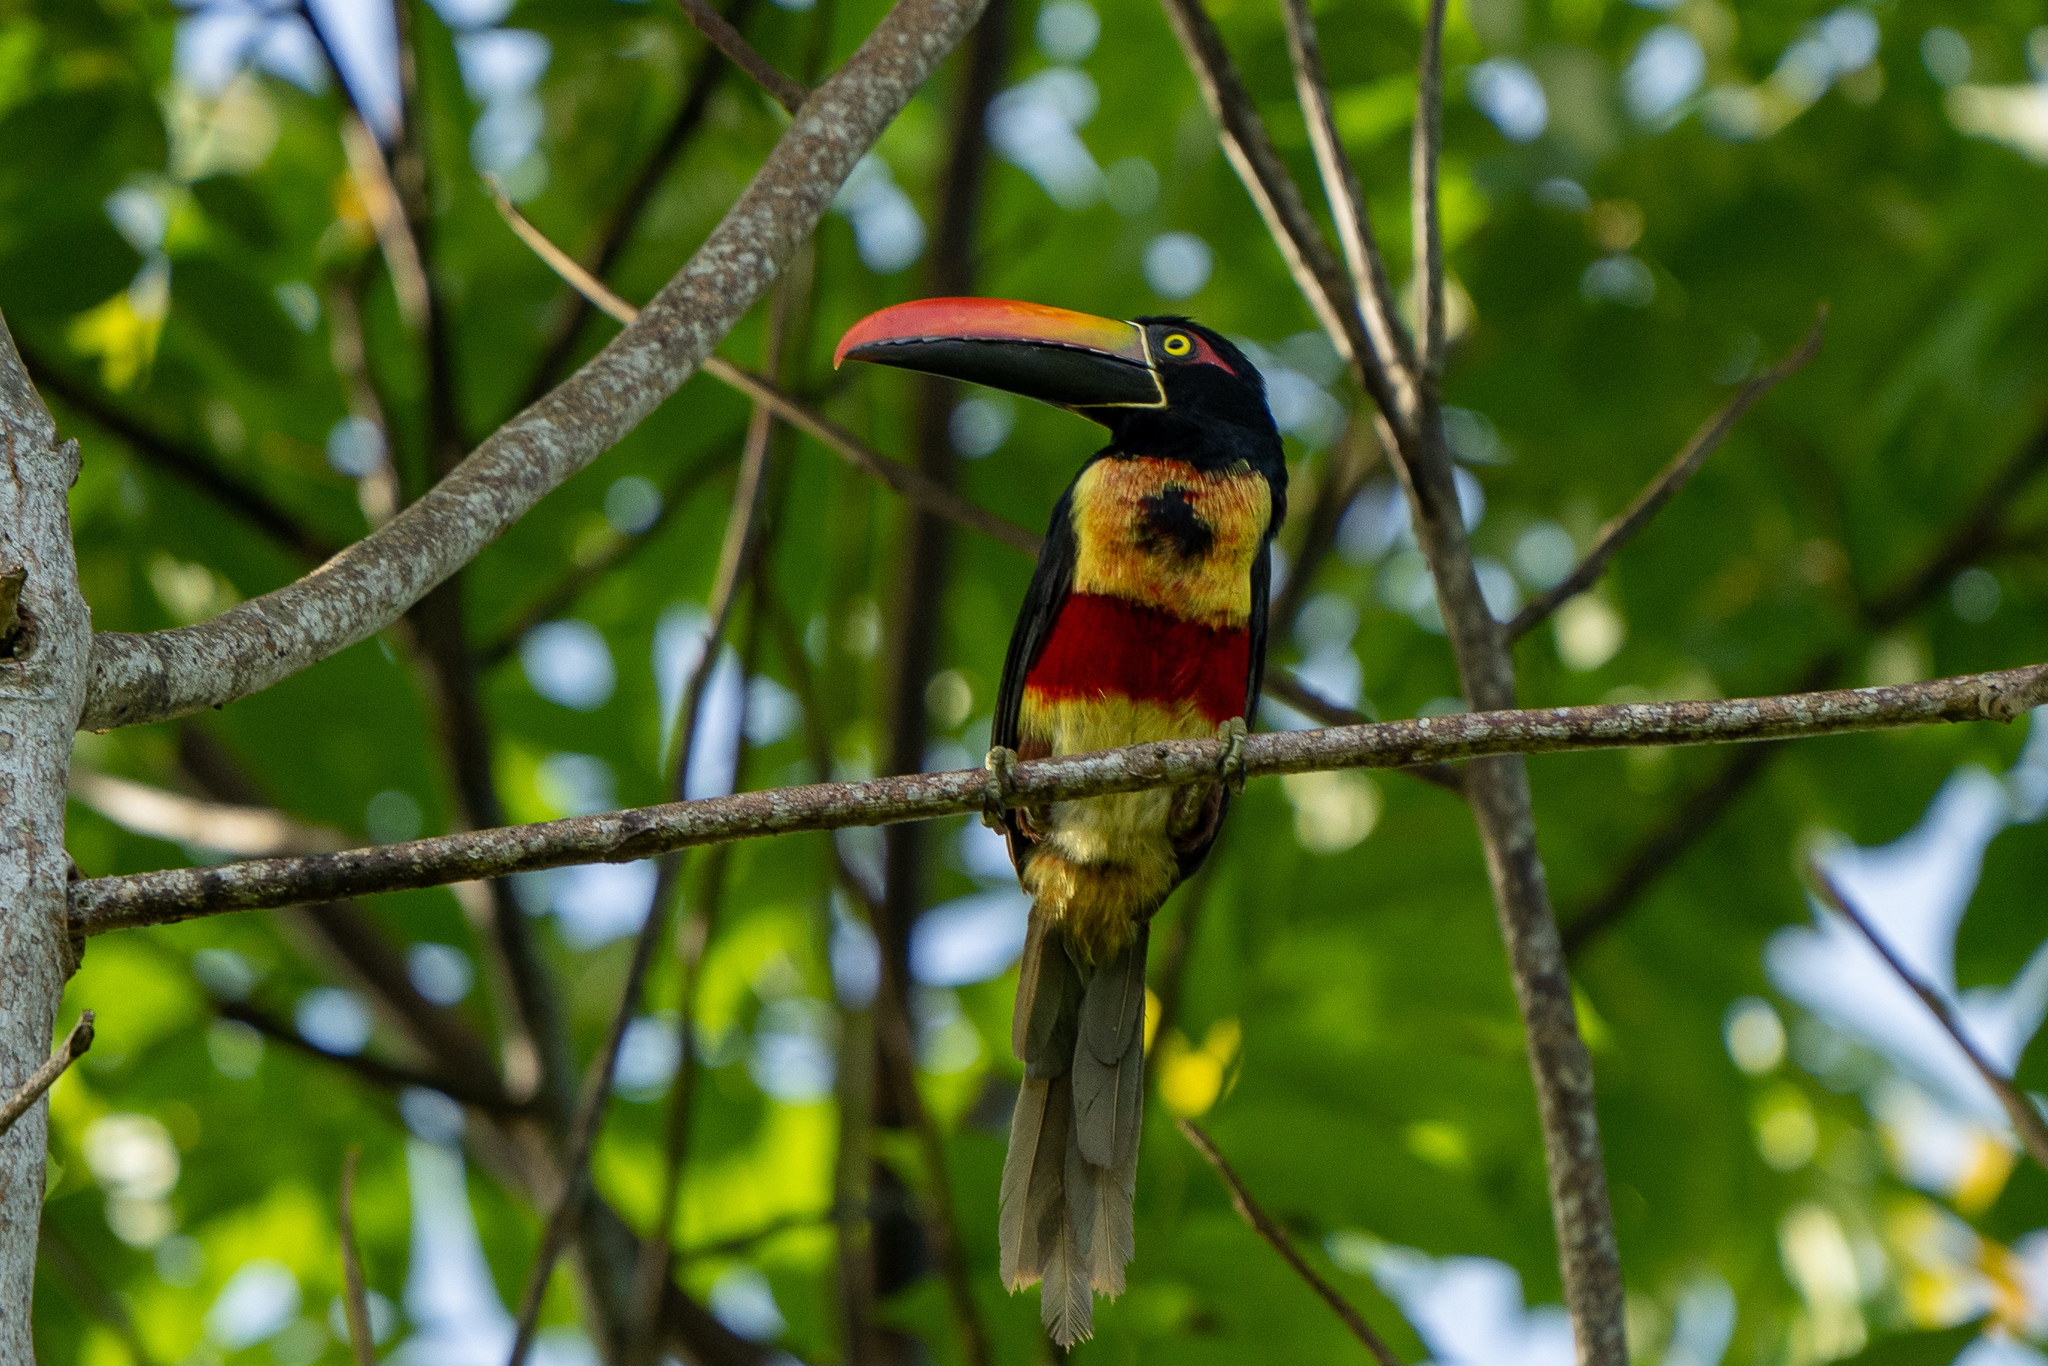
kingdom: Animalia
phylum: Chordata
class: Aves
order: Piciformes
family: Ramphastidae
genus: Pteroglossus
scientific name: Pteroglossus frantzii
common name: Fiery-billed aracari
